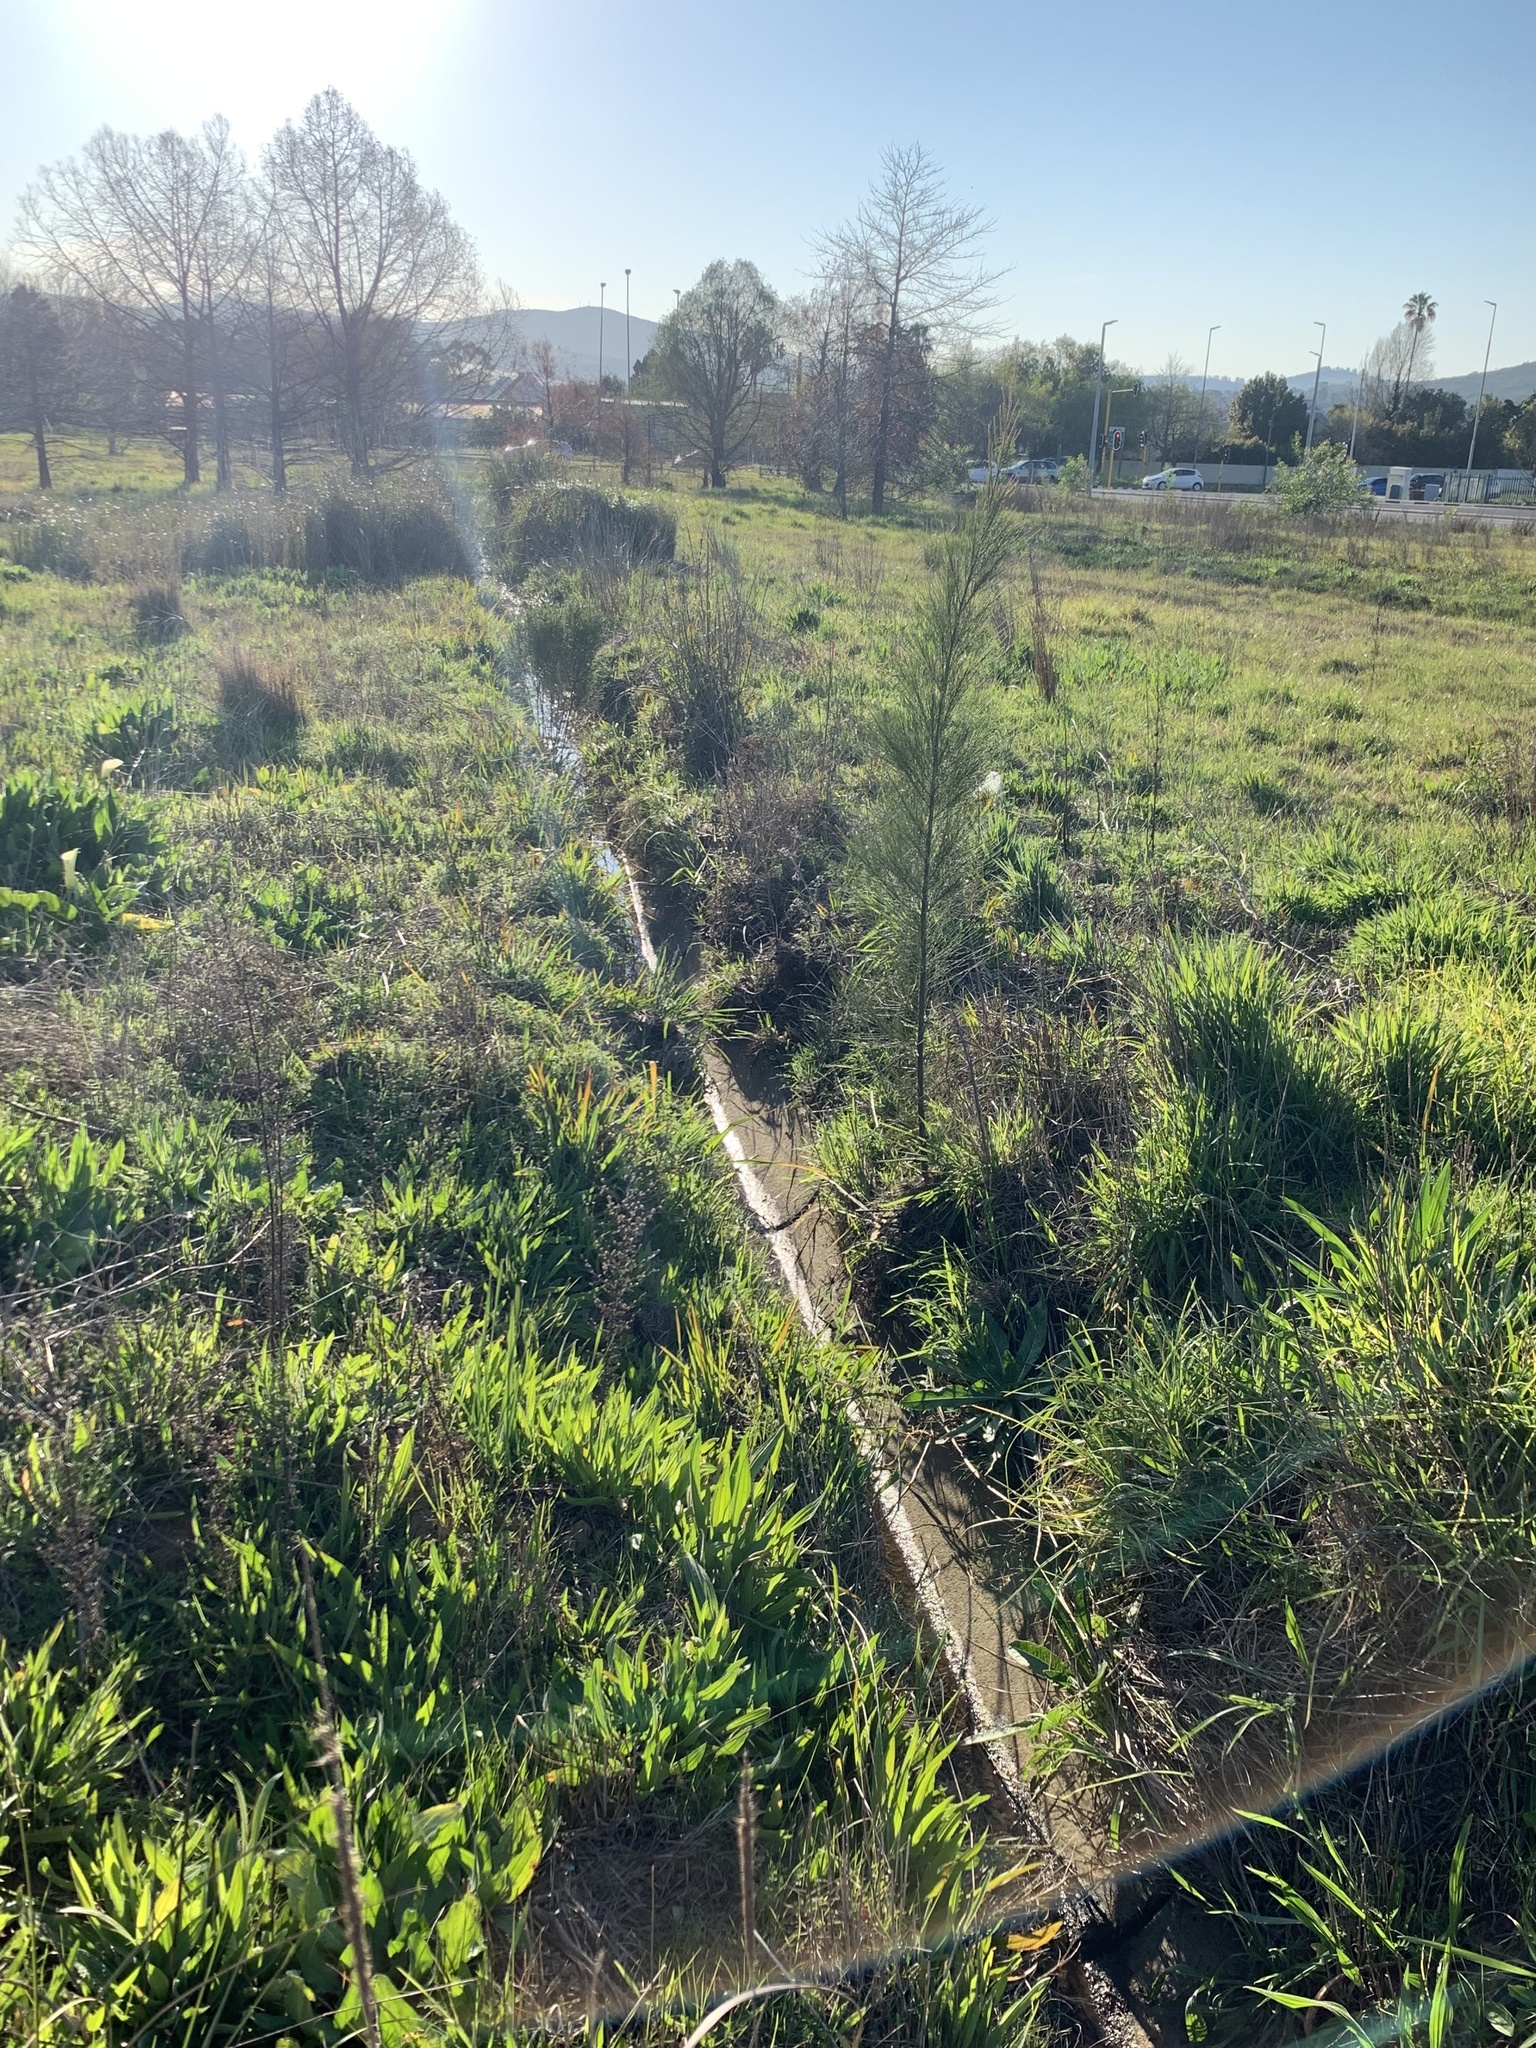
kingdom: Plantae
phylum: Tracheophyta
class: Magnoliopsida
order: Fagales
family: Casuarinaceae
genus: Casuarina
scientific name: Casuarina cunninghamiana
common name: River sheoak
